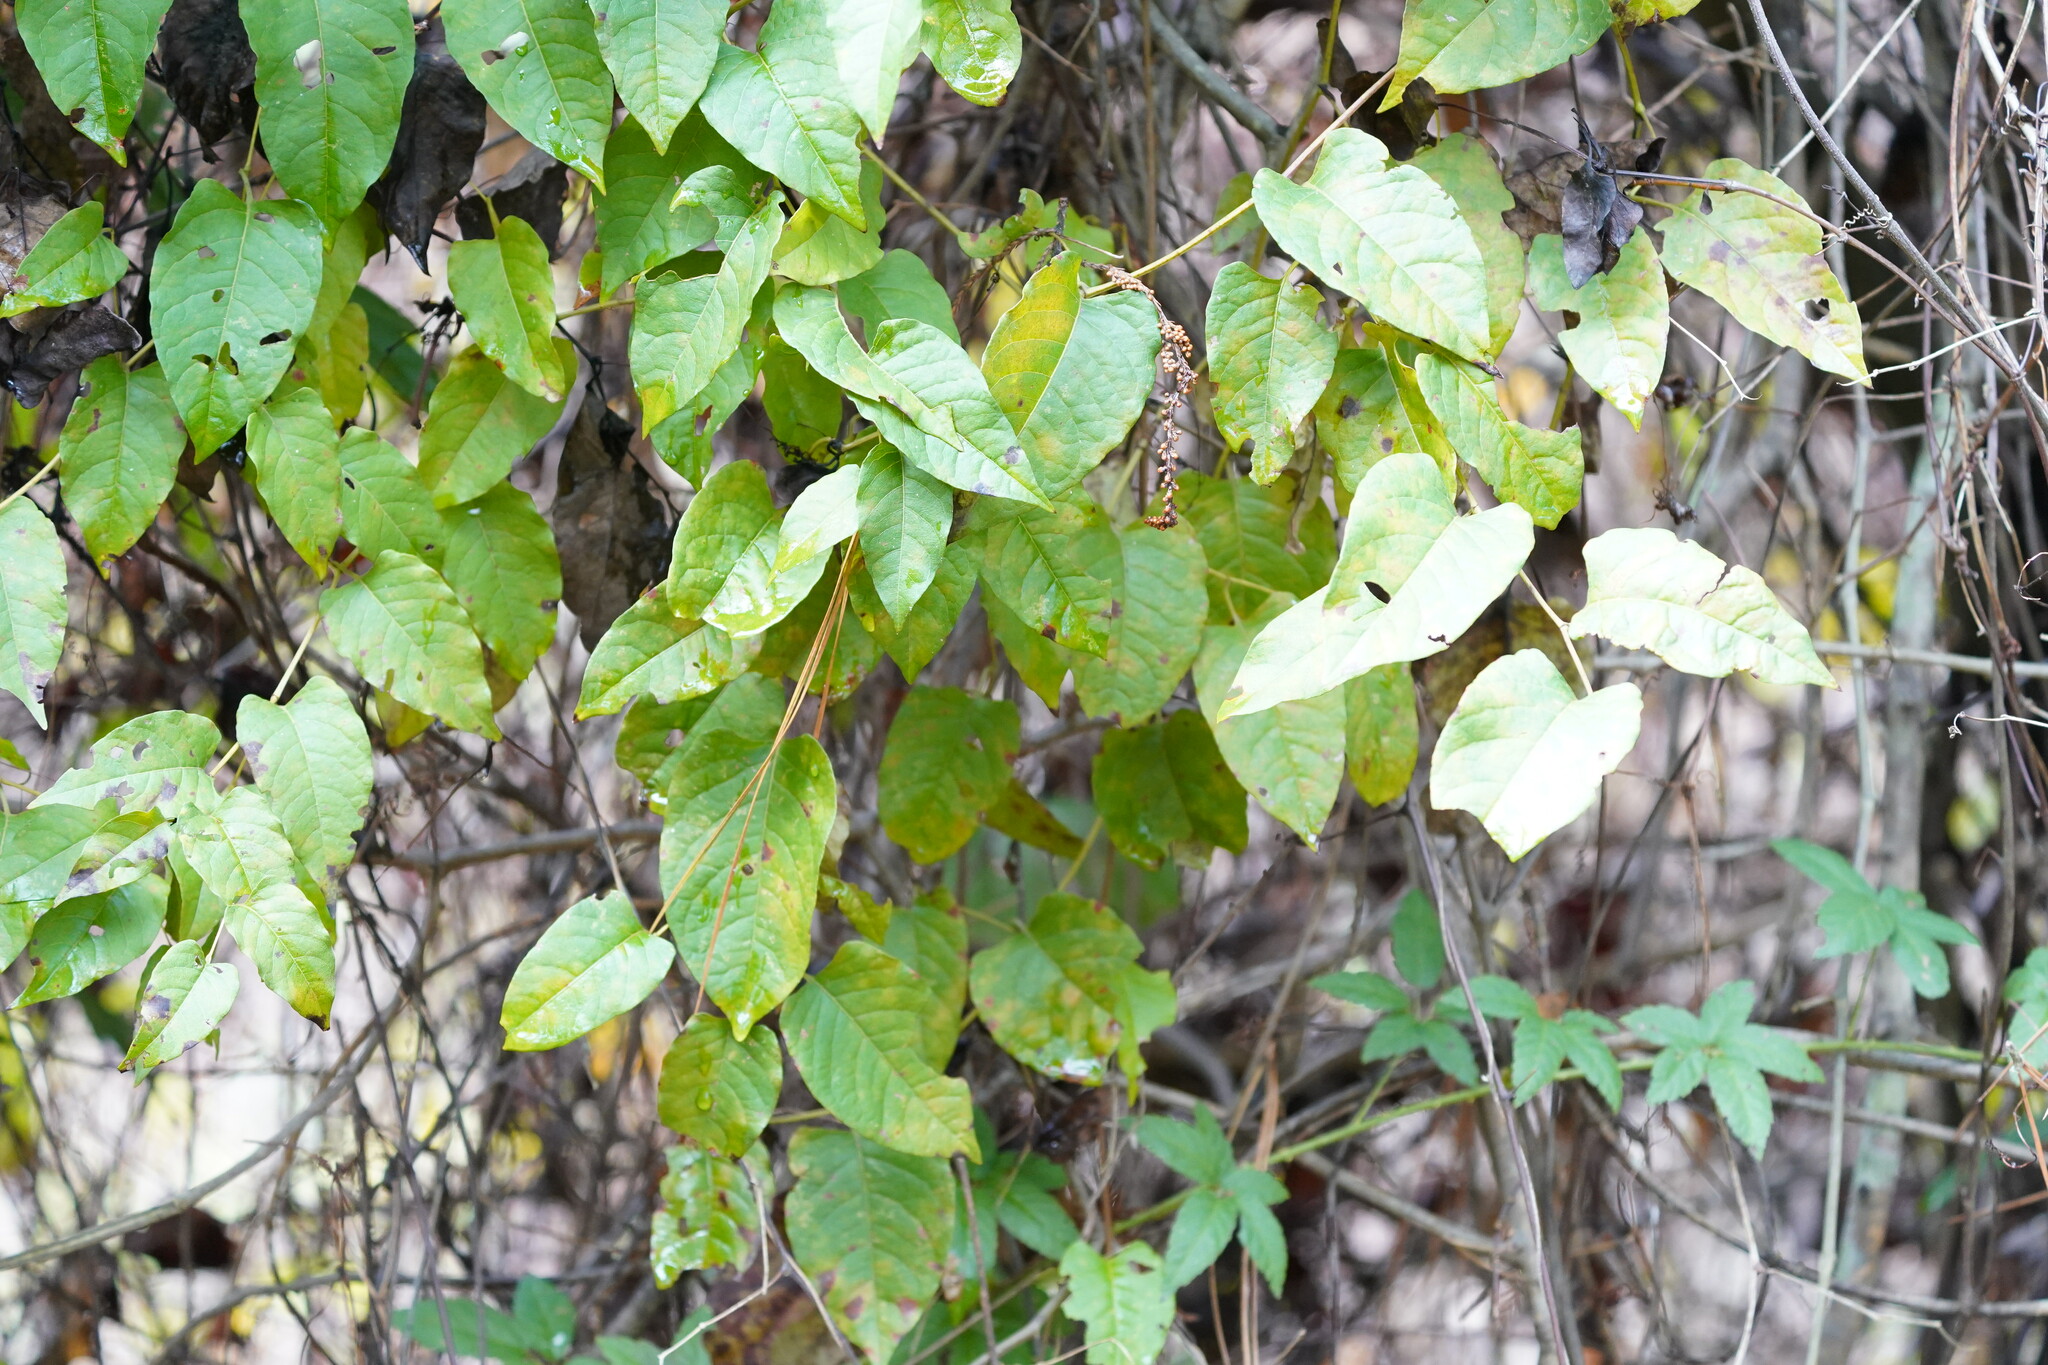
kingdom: Plantae
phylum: Tracheophyta
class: Magnoliopsida
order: Caryophyllales
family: Polygonaceae
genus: Brunnichia
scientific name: Brunnichia ovata
